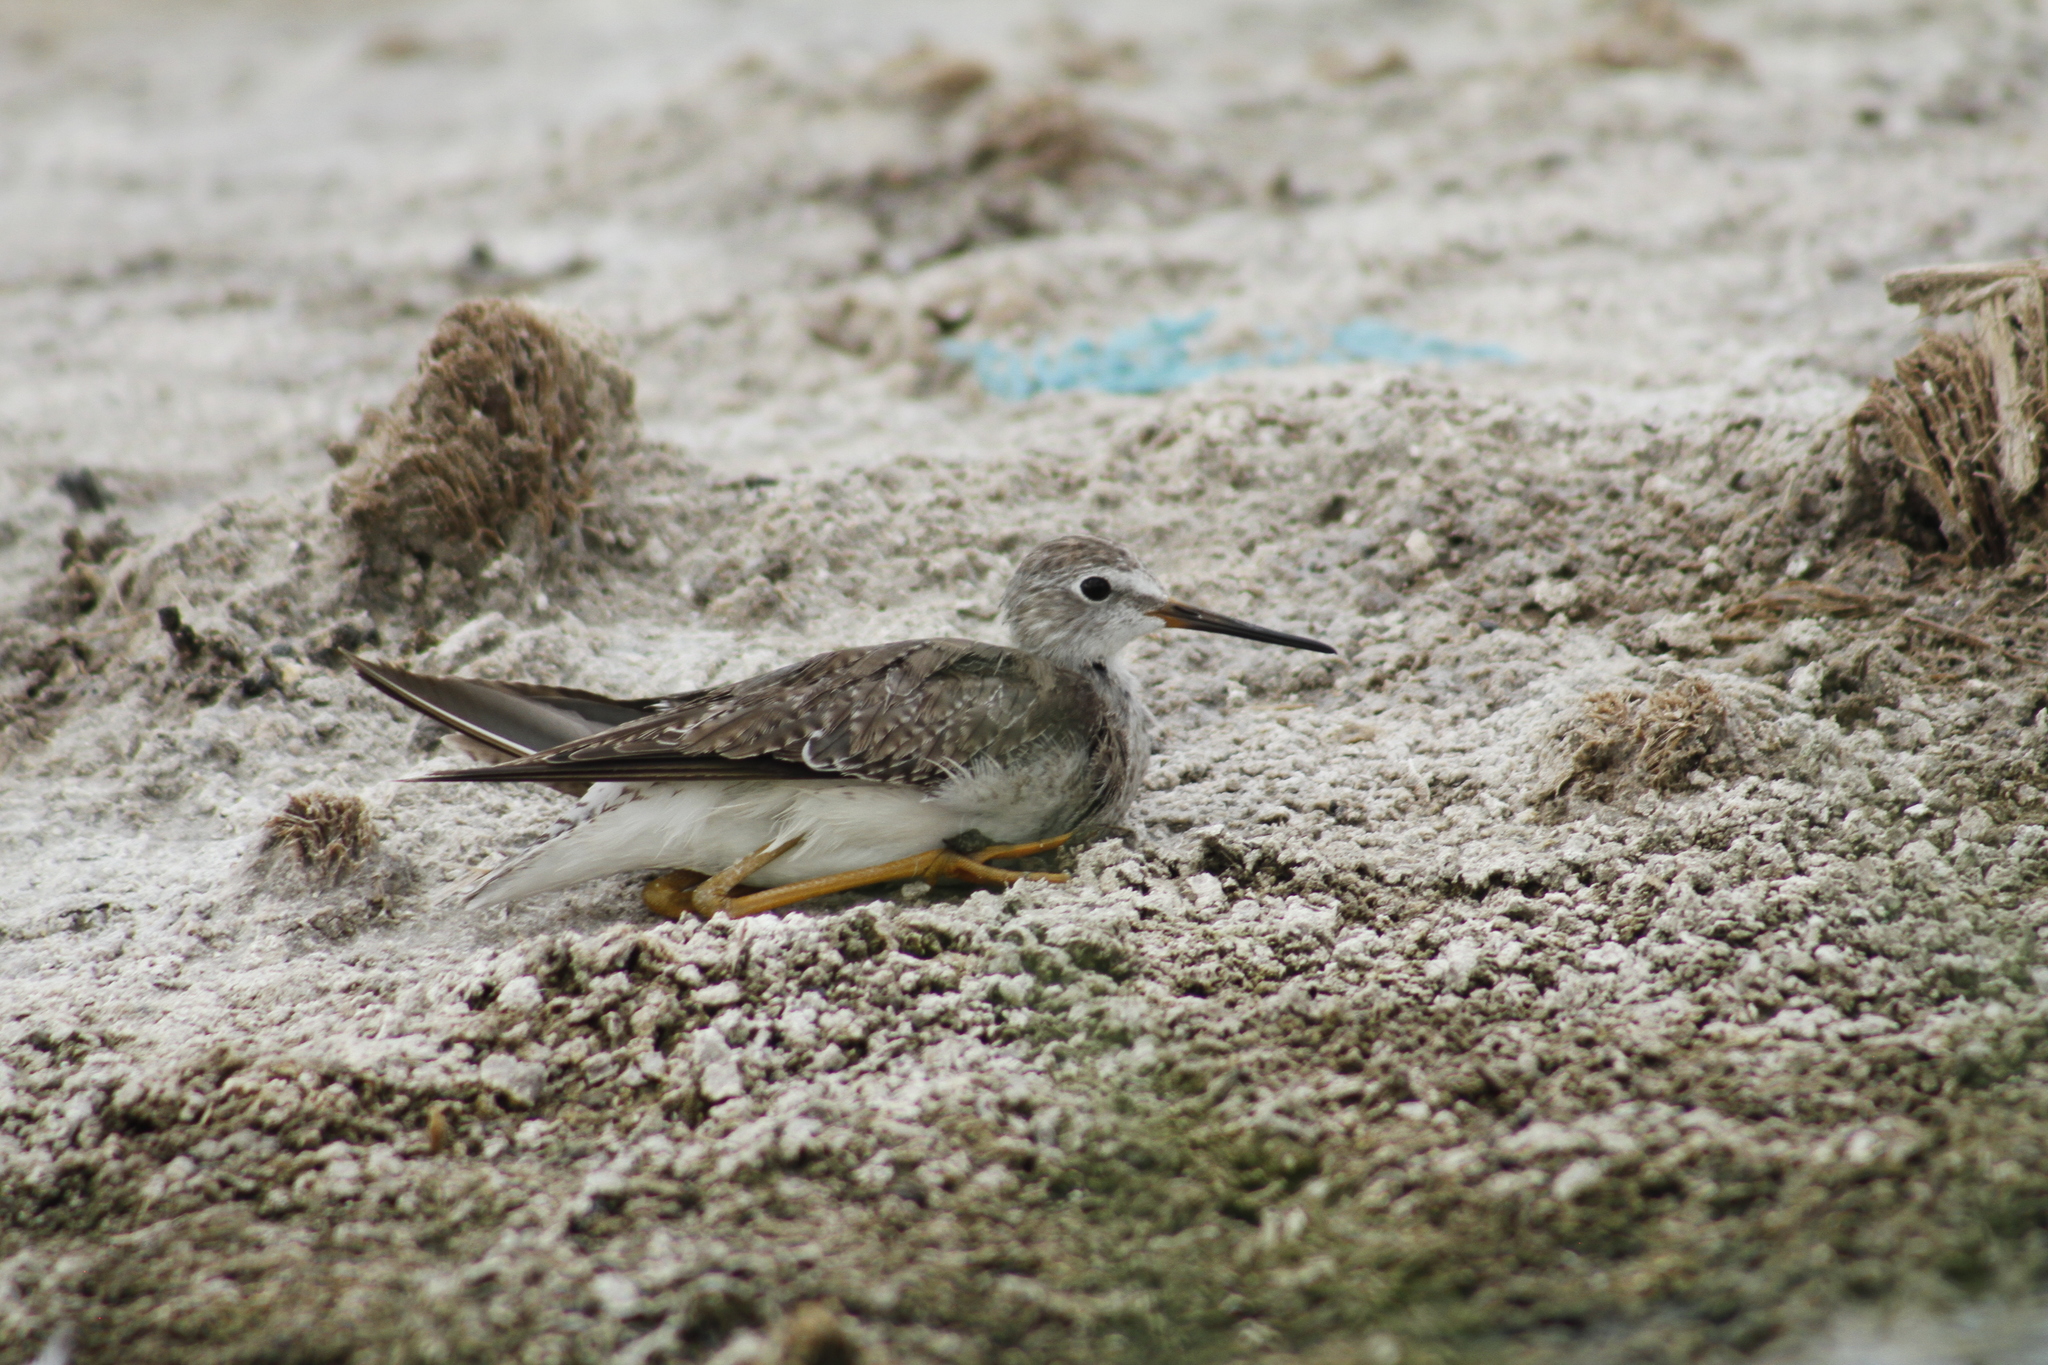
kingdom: Animalia
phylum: Chordata
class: Aves
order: Charadriiformes
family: Scolopacidae
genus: Tringa
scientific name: Tringa flavipes
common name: Lesser yellowlegs
